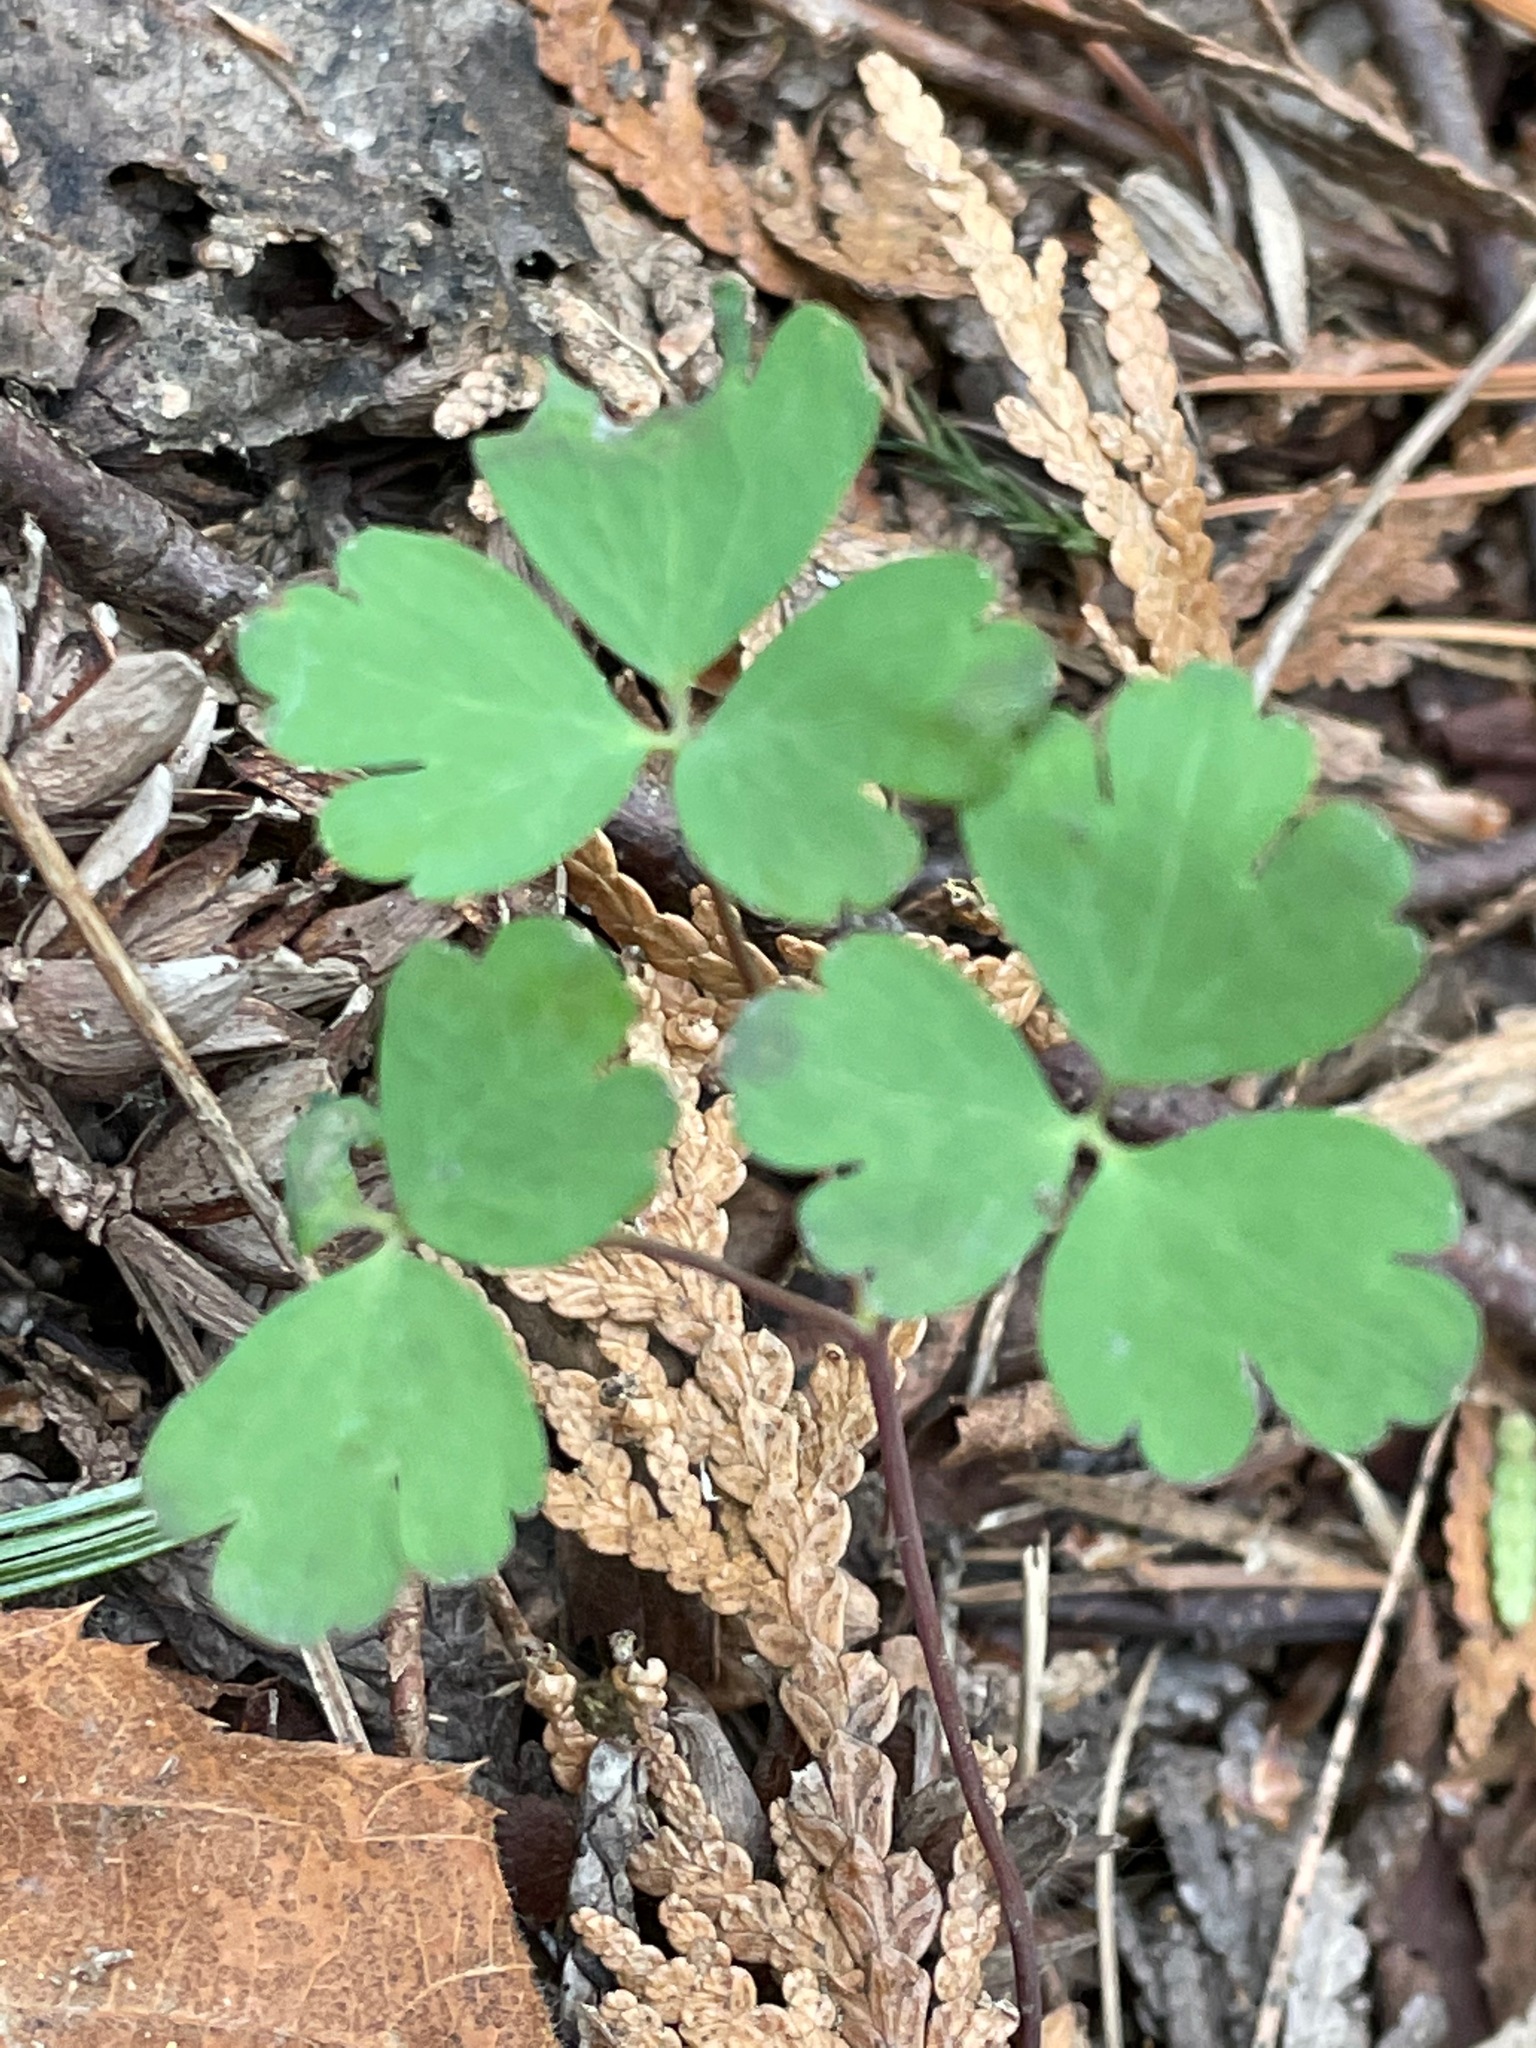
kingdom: Plantae
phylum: Tracheophyta
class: Magnoliopsida
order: Ranunculales
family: Ranunculaceae
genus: Aquilegia
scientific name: Aquilegia canadensis
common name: American columbine
